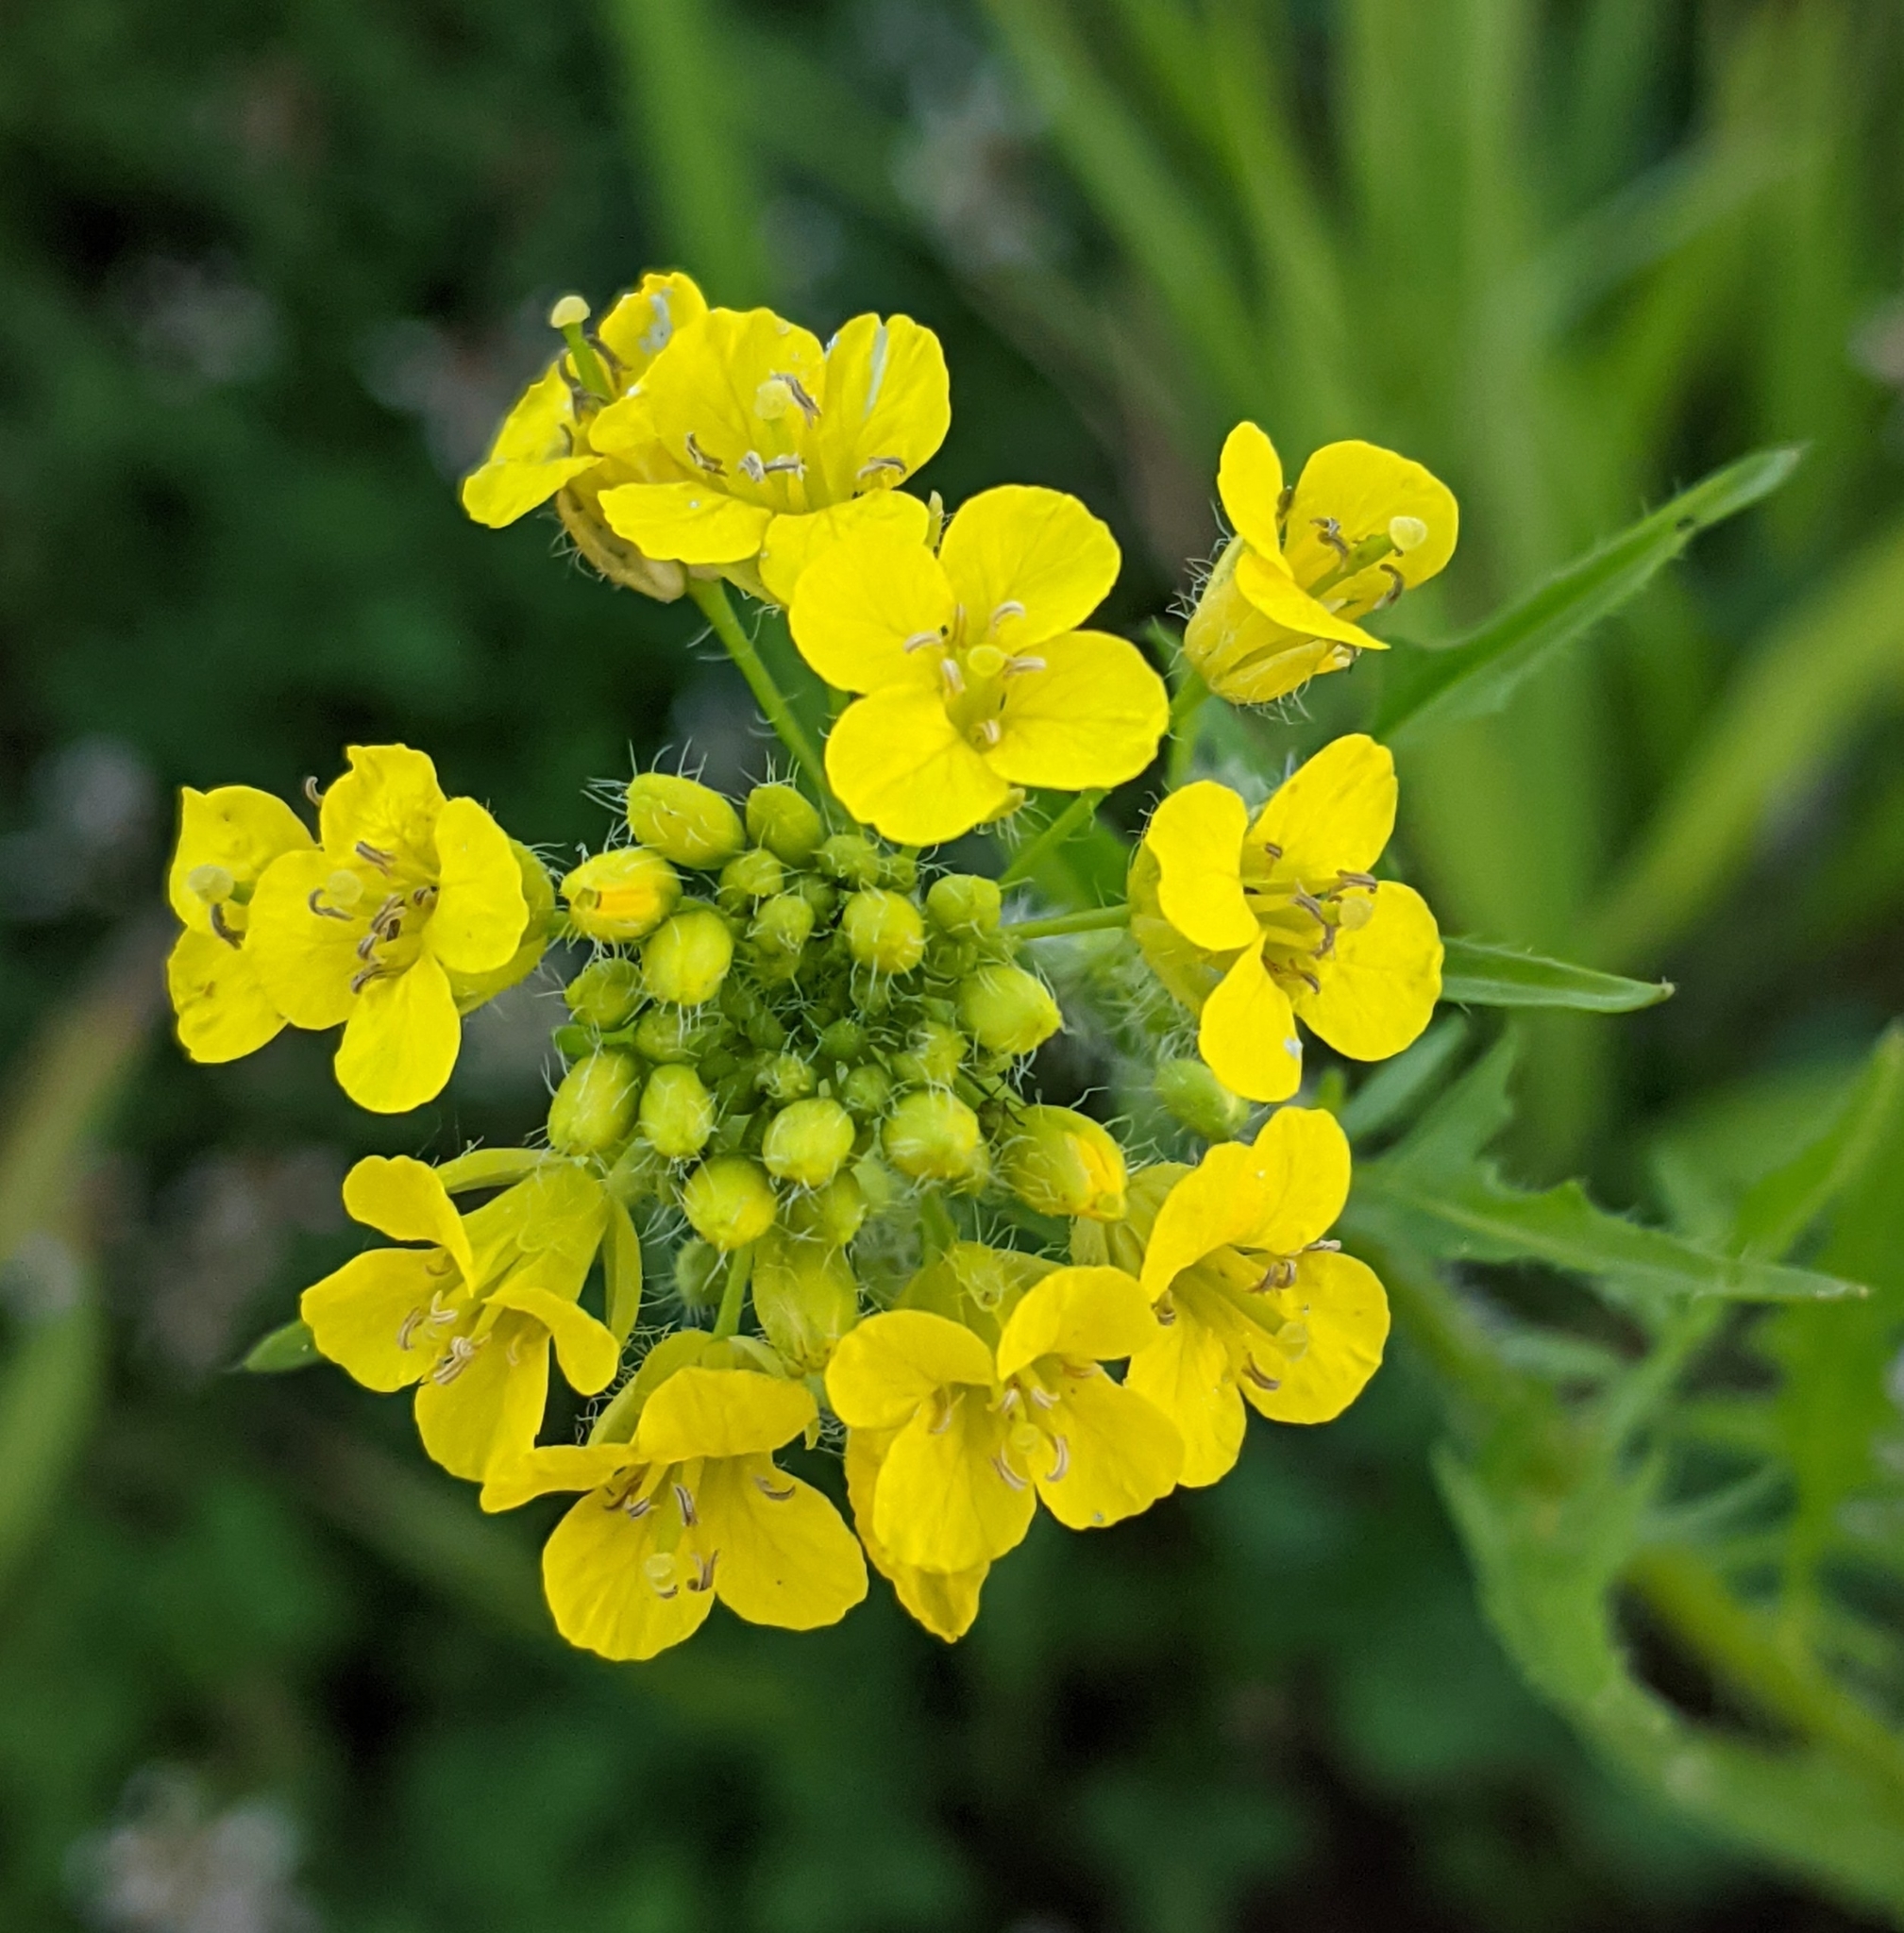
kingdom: Plantae
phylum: Tracheophyta
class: Magnoliopsida
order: Brassicales
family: Brassicaceae
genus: Sisymbrium
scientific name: Sisymbrium loeselii
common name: False london-rocket
